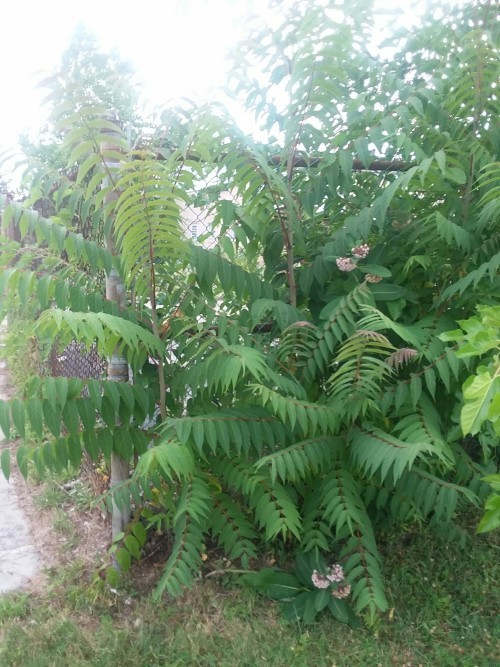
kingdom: Plantae
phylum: Tracheophyta
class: Magnoliopsida
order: Sapindales
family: Simaroubaceae
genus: Ailanthus
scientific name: Ailanthus altissima
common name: Tree-of-heaven
